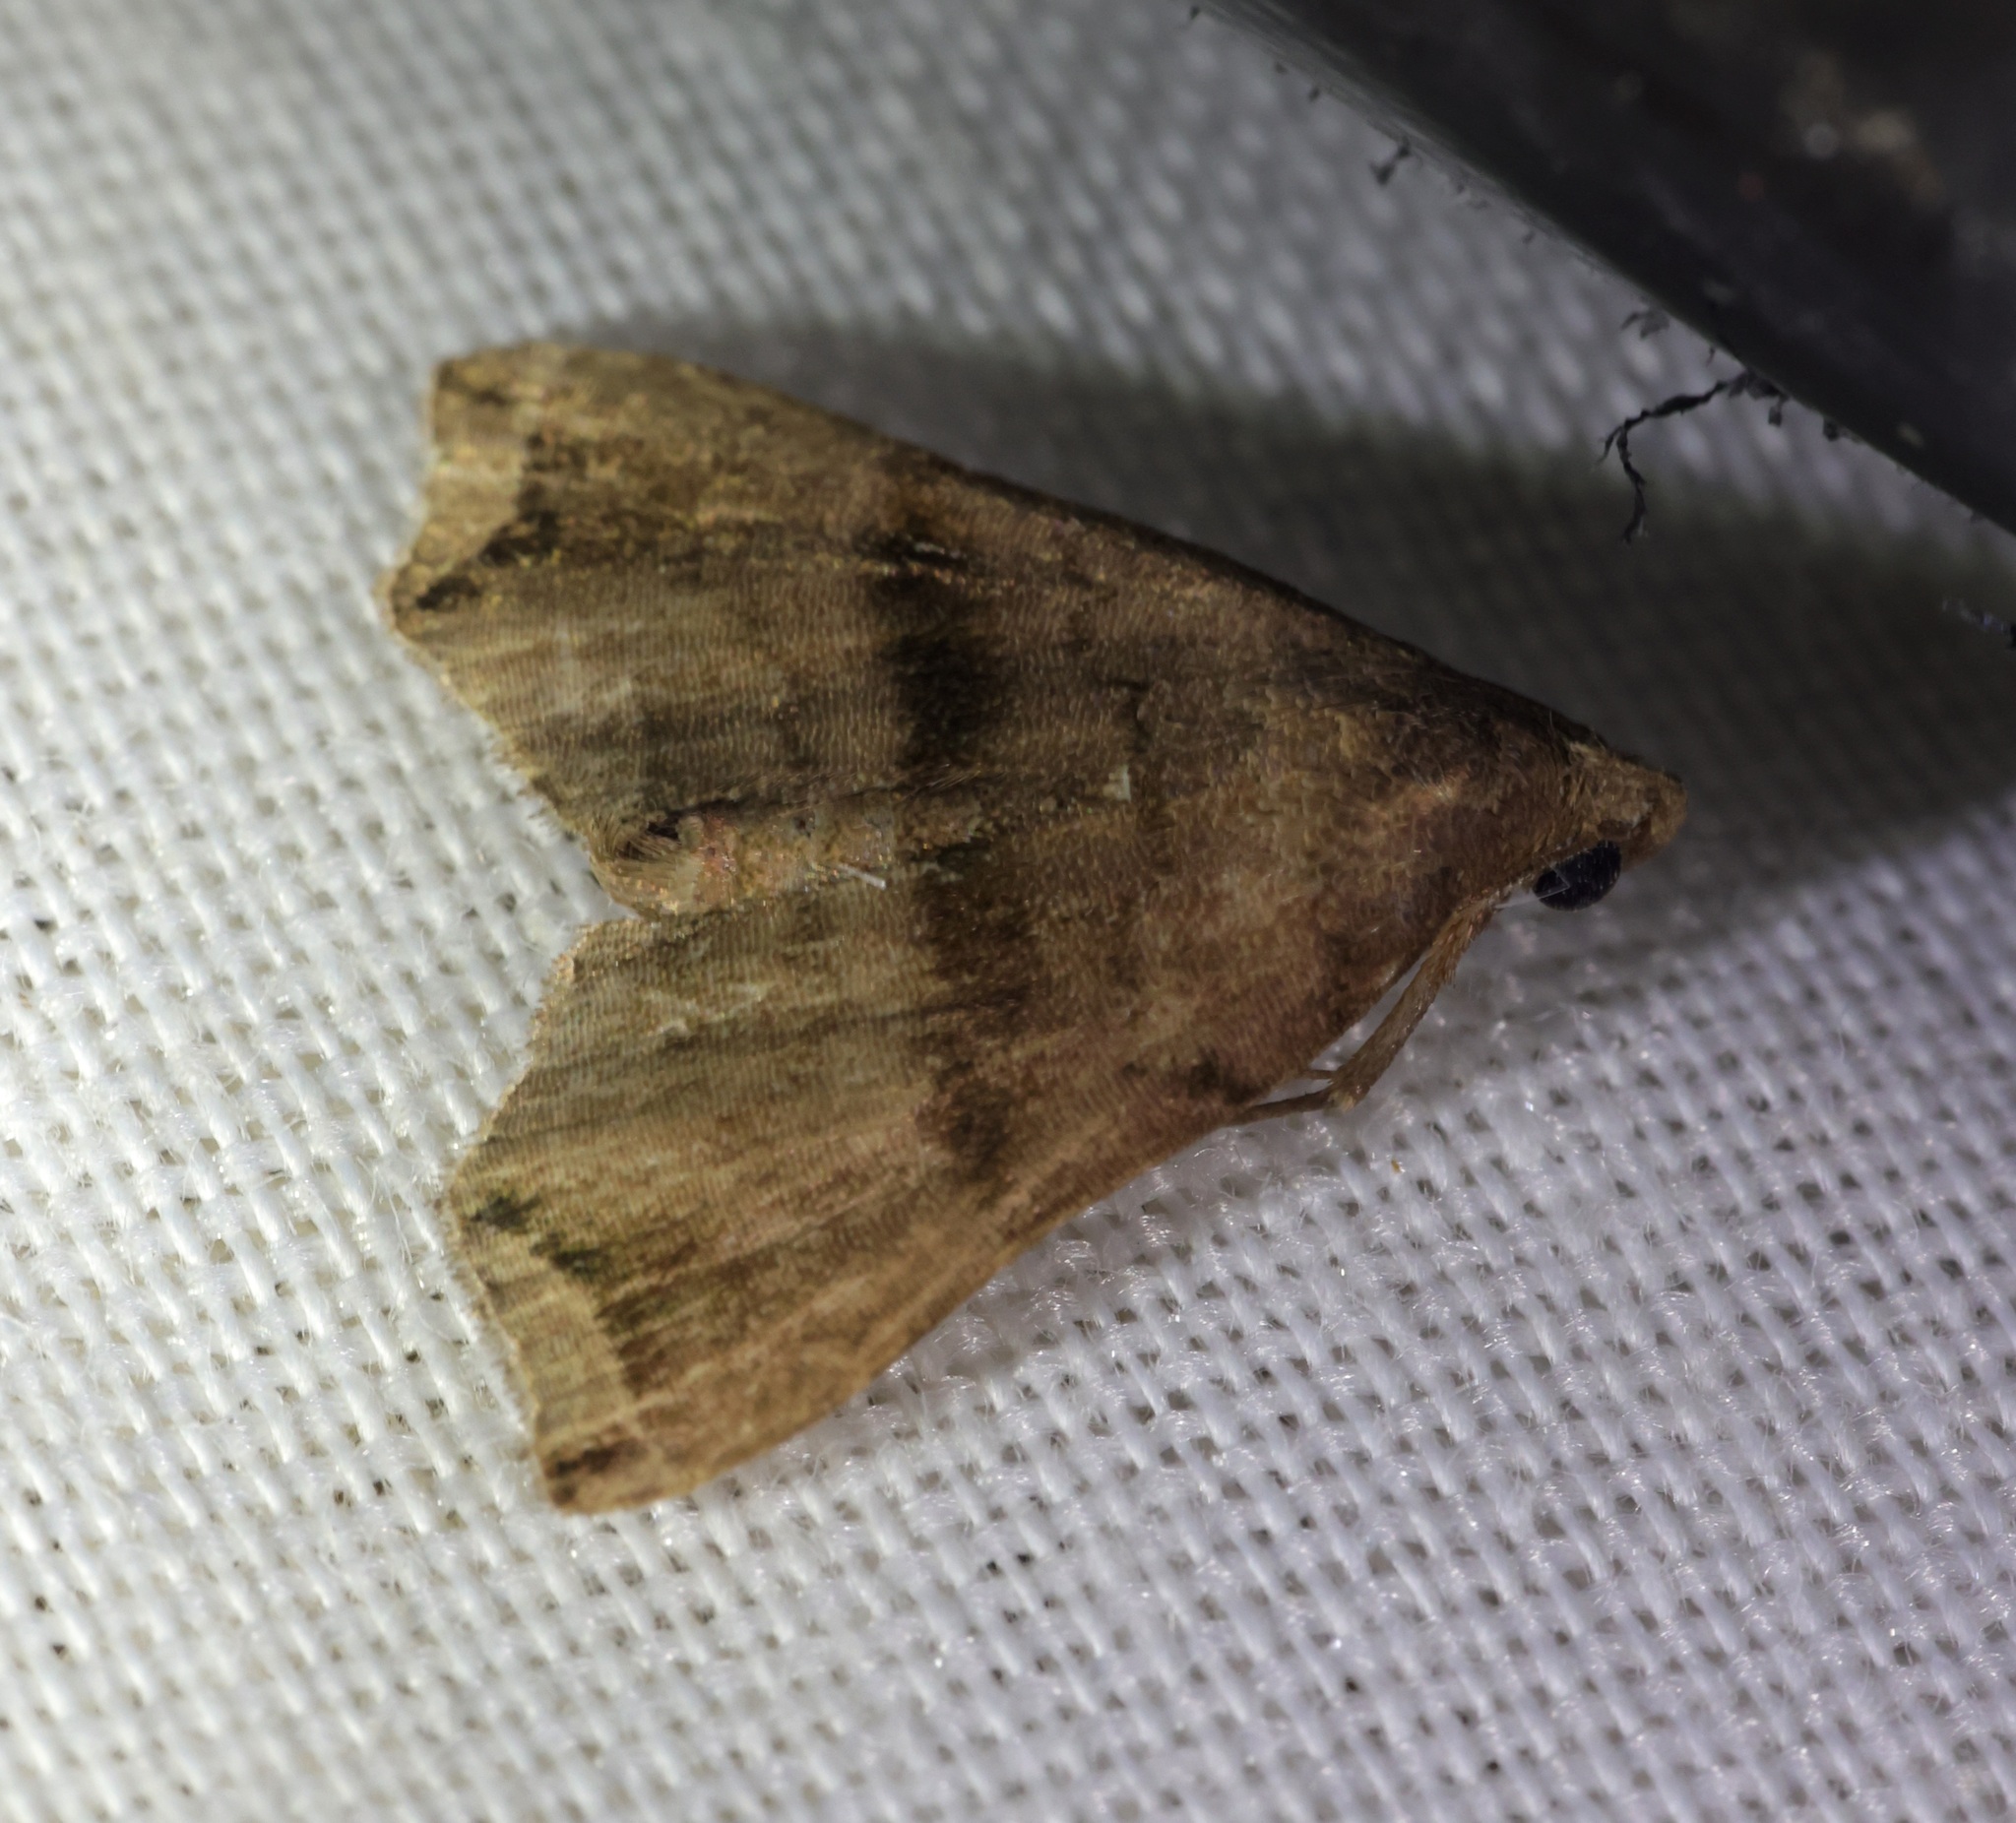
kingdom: Animalia
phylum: Arthropoda
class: Insecta
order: Lepidoptera
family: Erebidae
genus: Polypogon
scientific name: Polypogon Hipoepa fractalis
